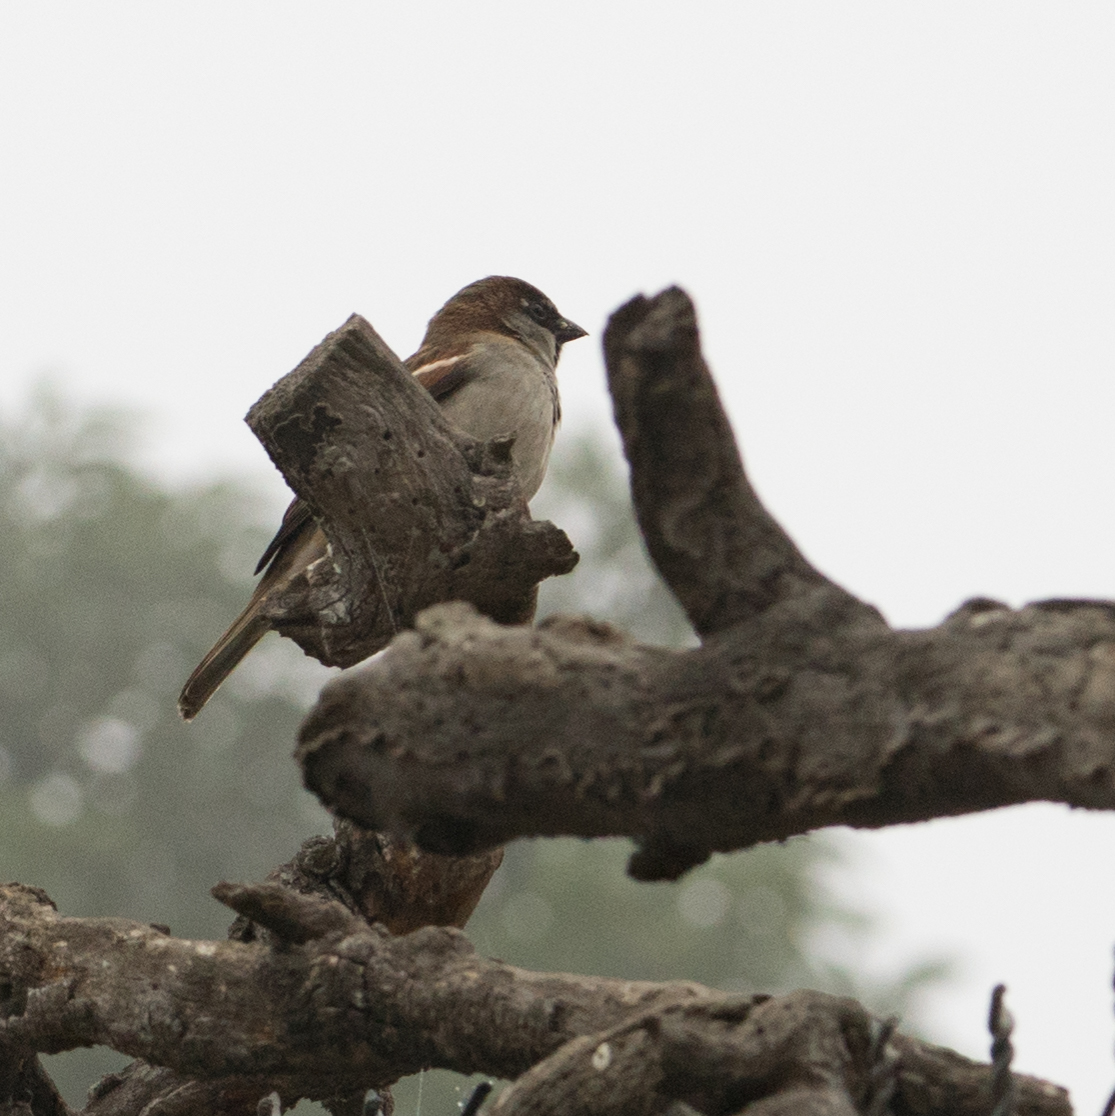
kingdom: Animalia
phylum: Chordata
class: Aves
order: Passeriformes
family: Passeridae
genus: Passer
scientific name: Passer domesticus
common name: House sparrow
